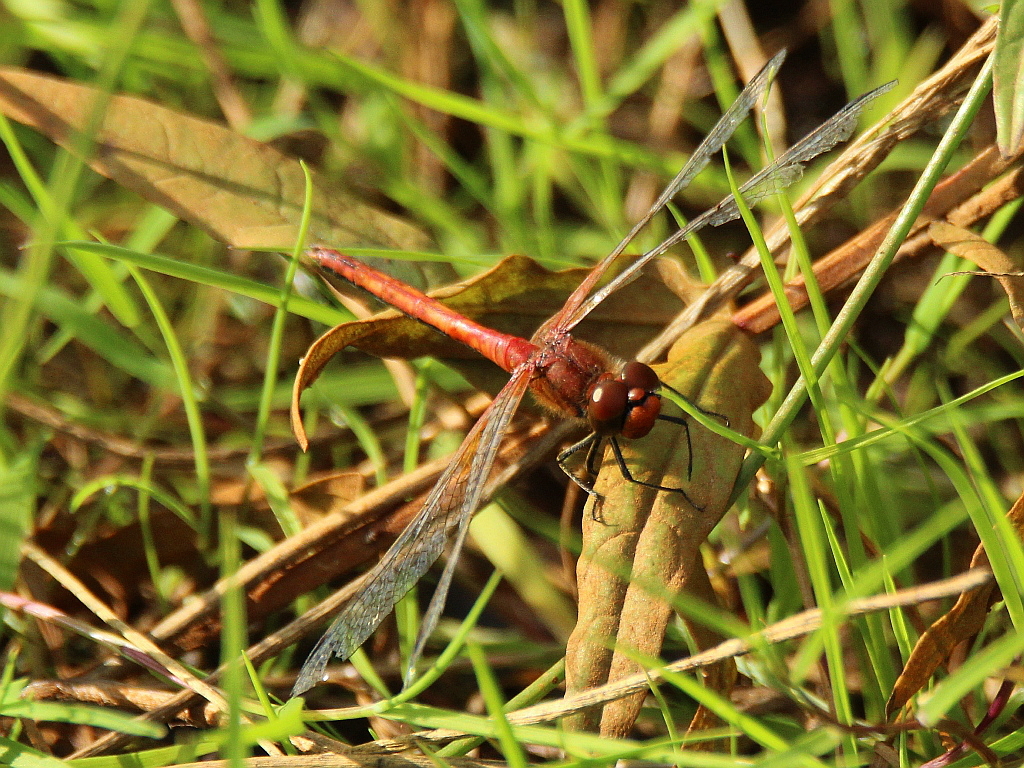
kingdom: Animalia
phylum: Arthropoda
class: Insecta
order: Odonata
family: Libellulidae
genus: Sympetrum
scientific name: Sympetrum flaveolum
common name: Yellow-winged darter
